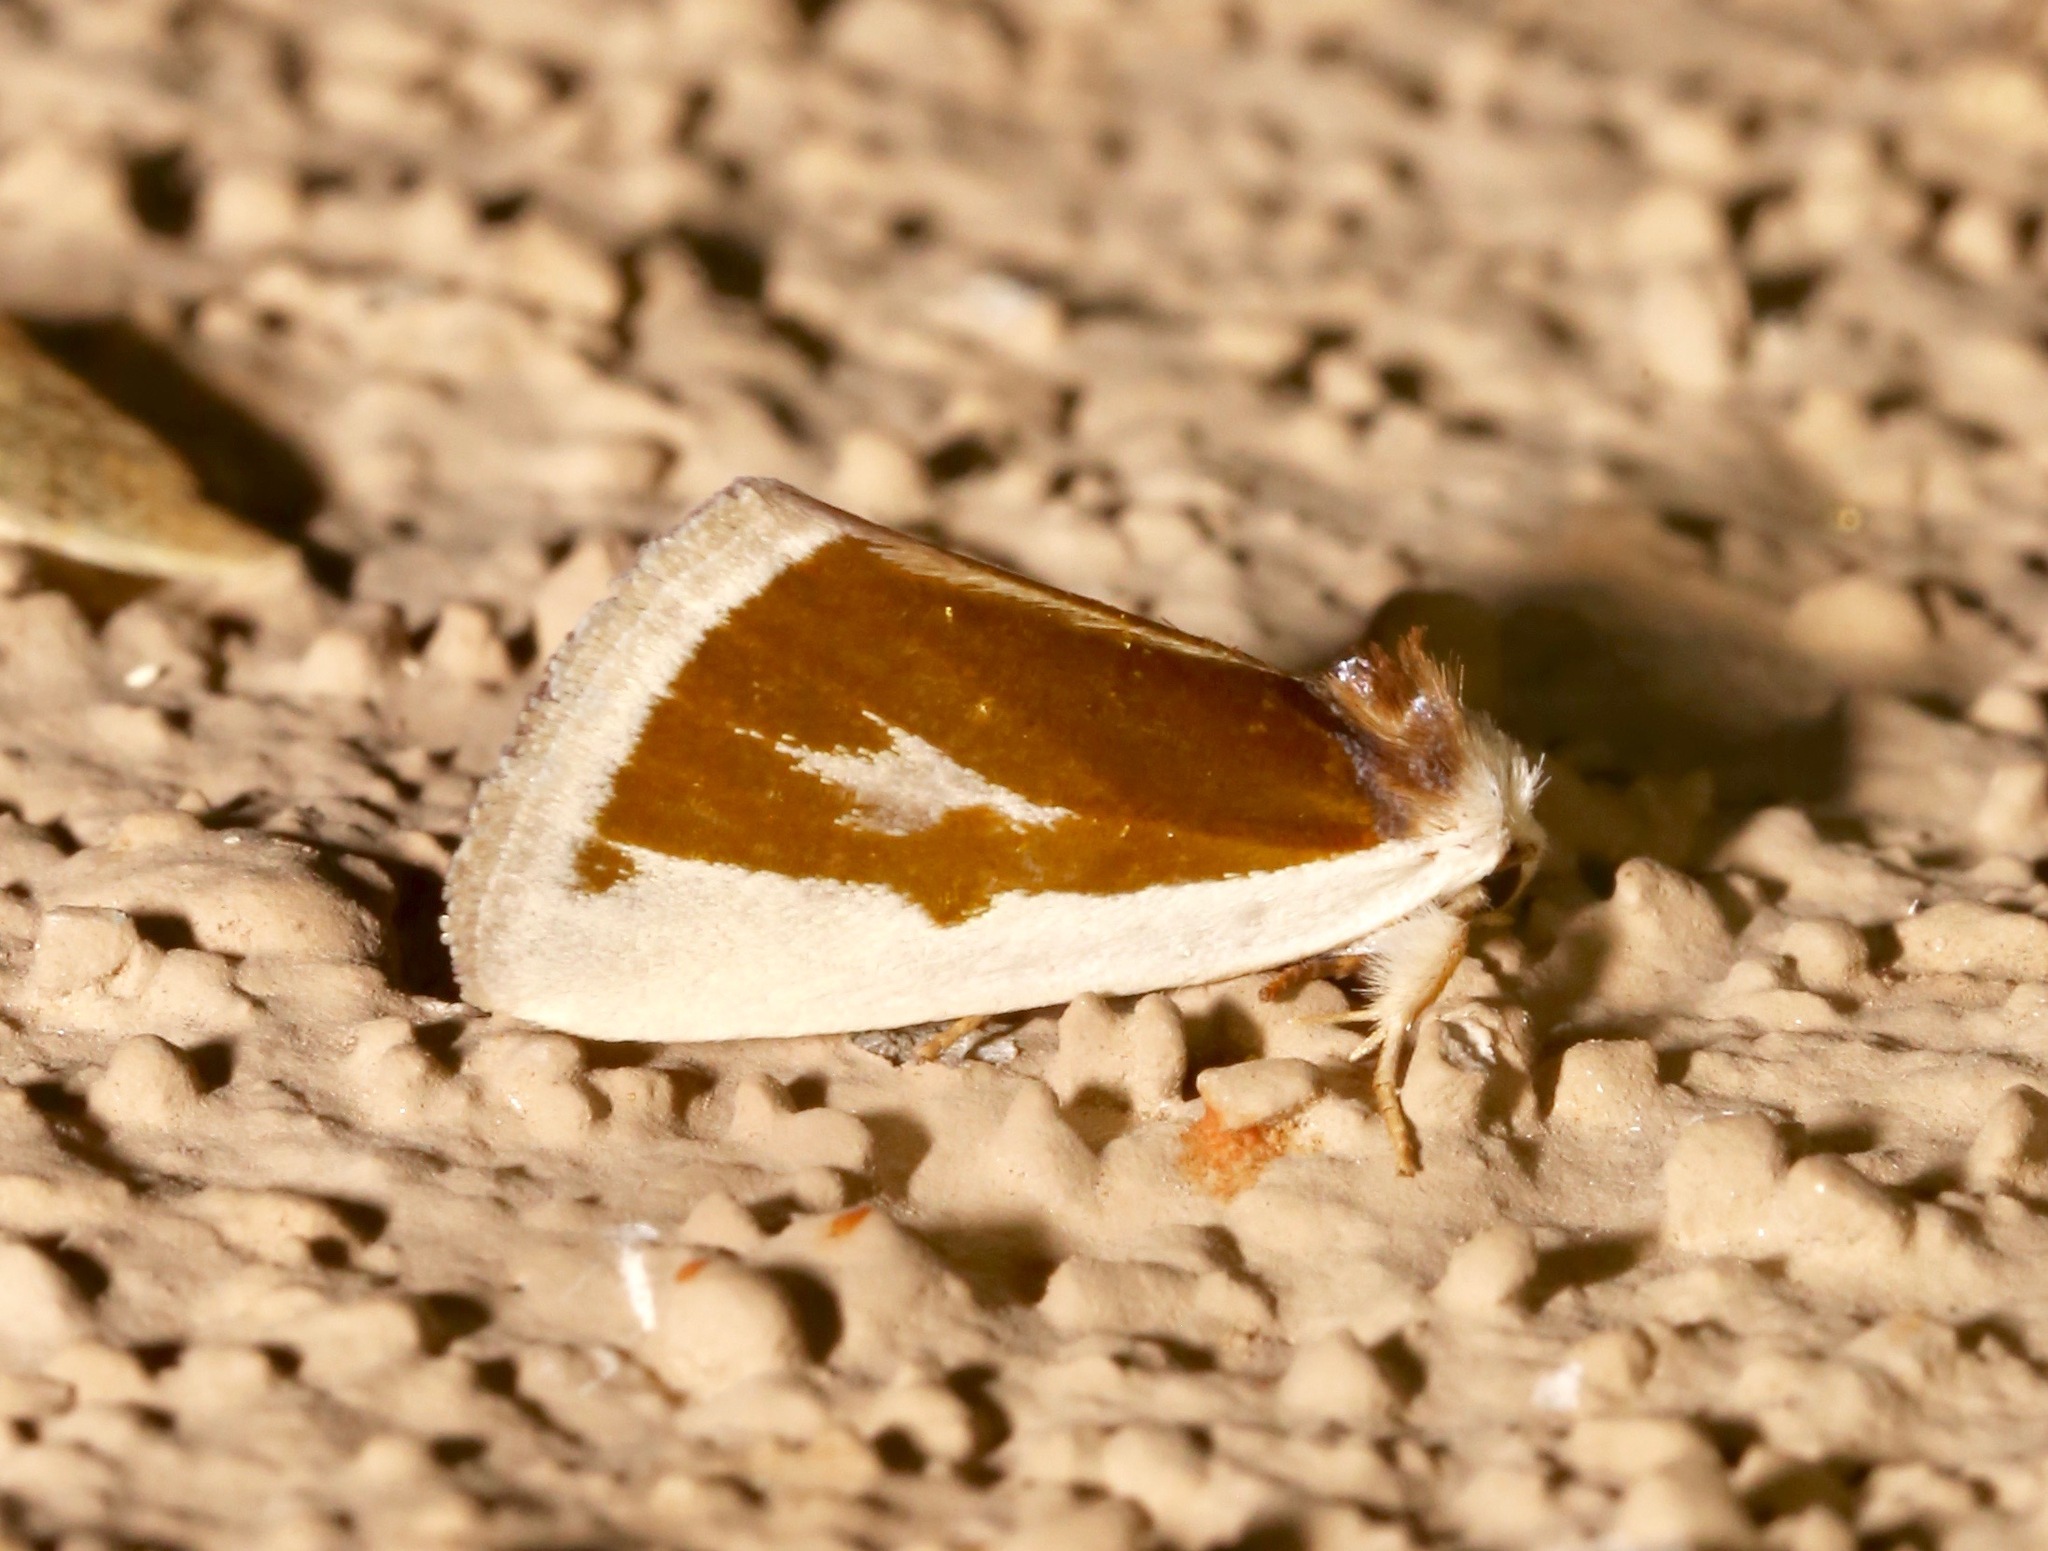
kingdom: Animalia
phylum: Arthropoda
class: Insecta
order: Lepidoptera
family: Noctuidae
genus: Neumoegenia
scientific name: Neumoegenia poetica
